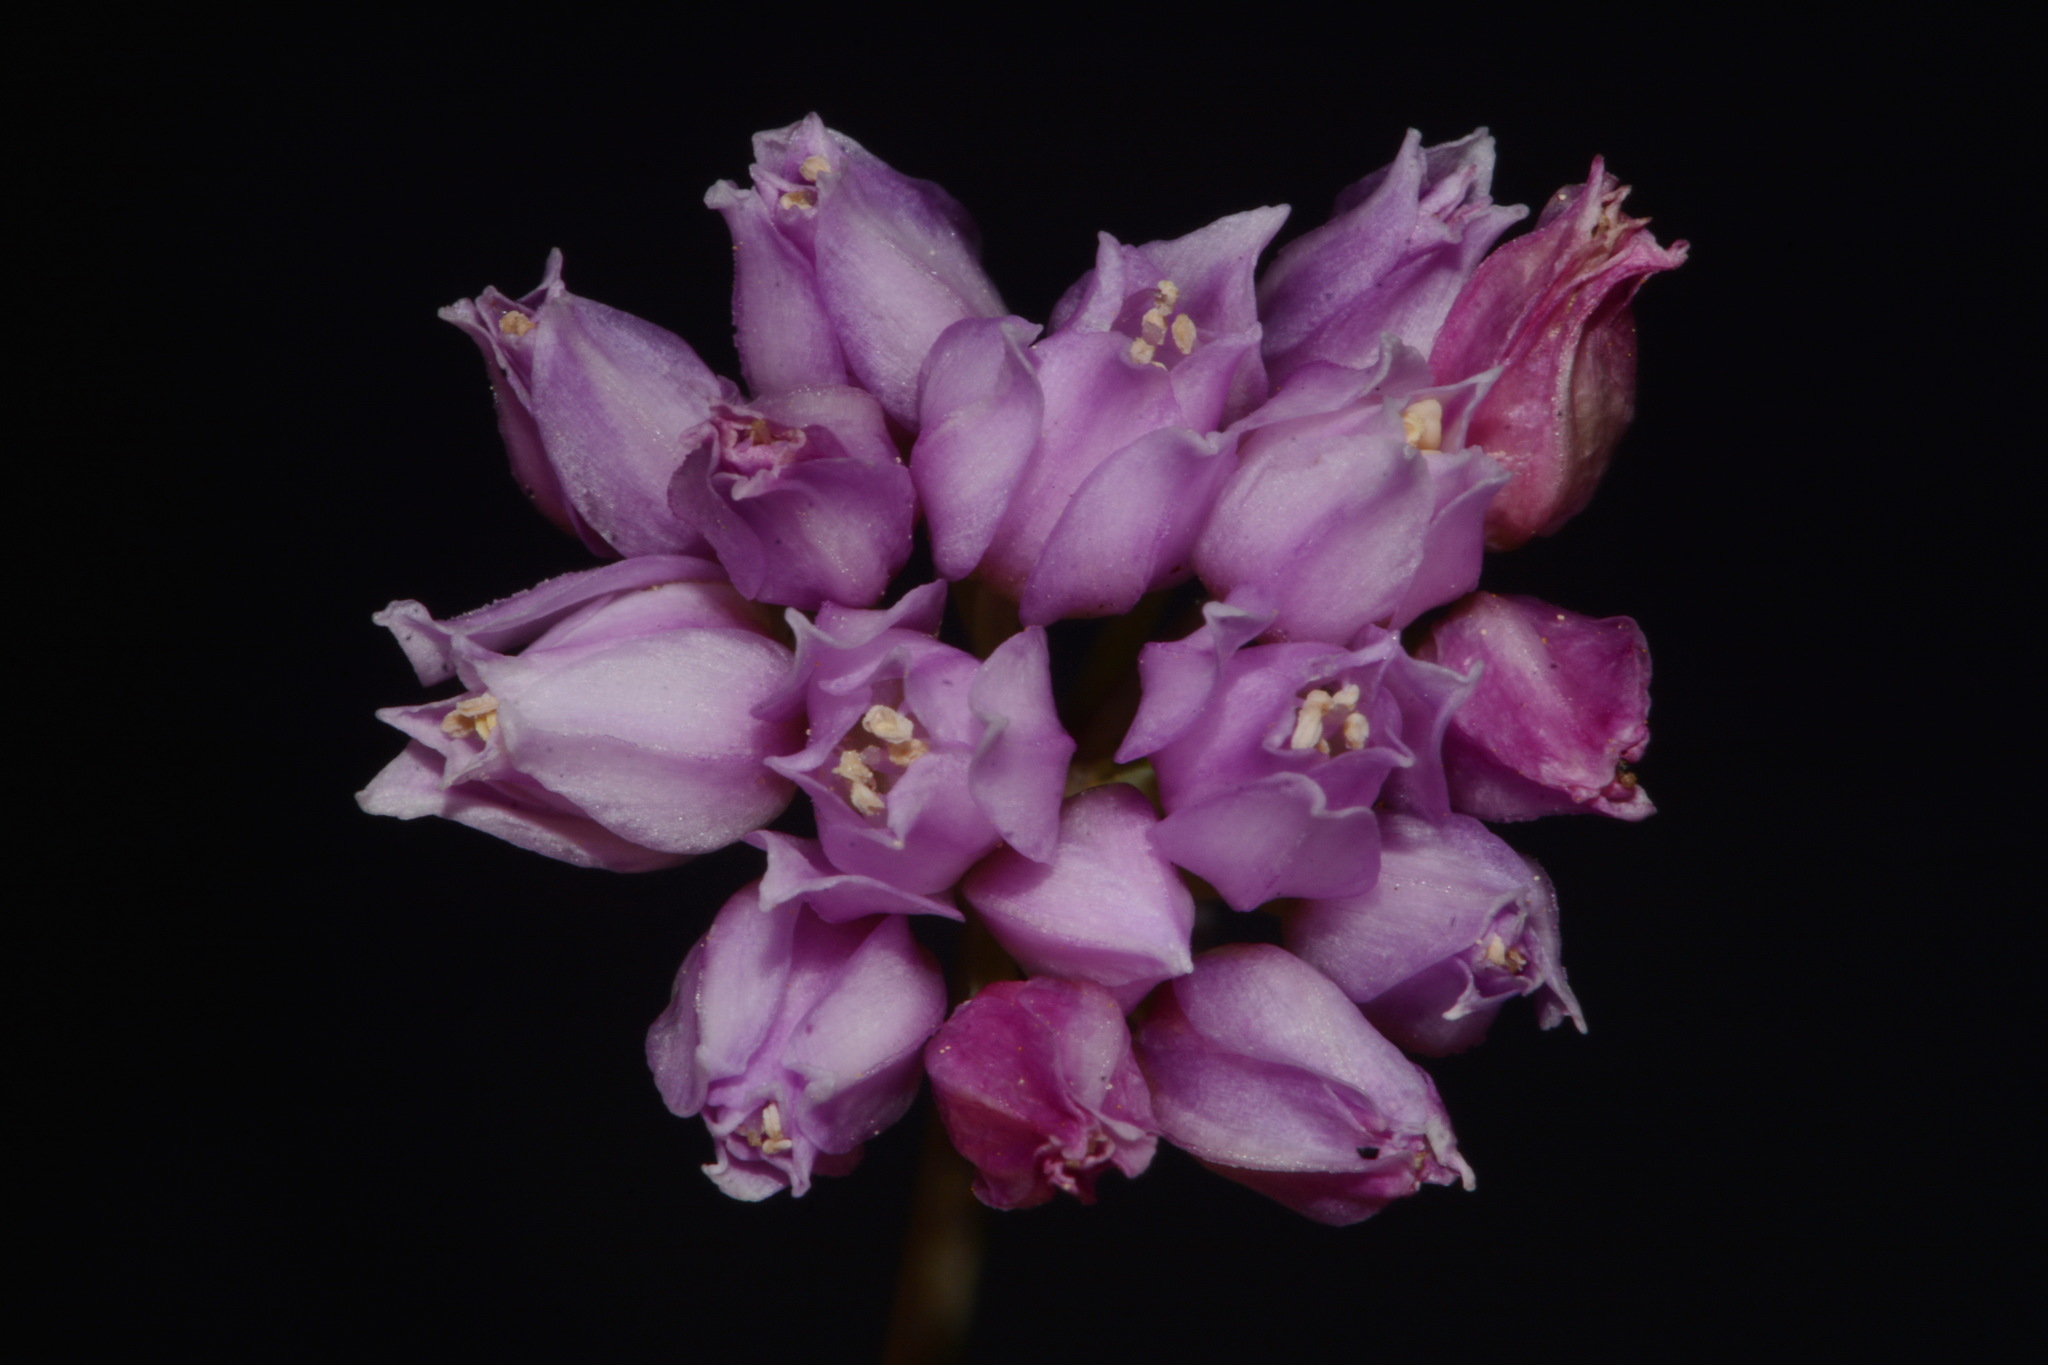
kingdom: Plantae
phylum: Tracheophyta
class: Liliopsida
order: Asparagales
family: Amaryllidaceae
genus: Allium
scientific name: Allium geyeri
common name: Geyer's onion
